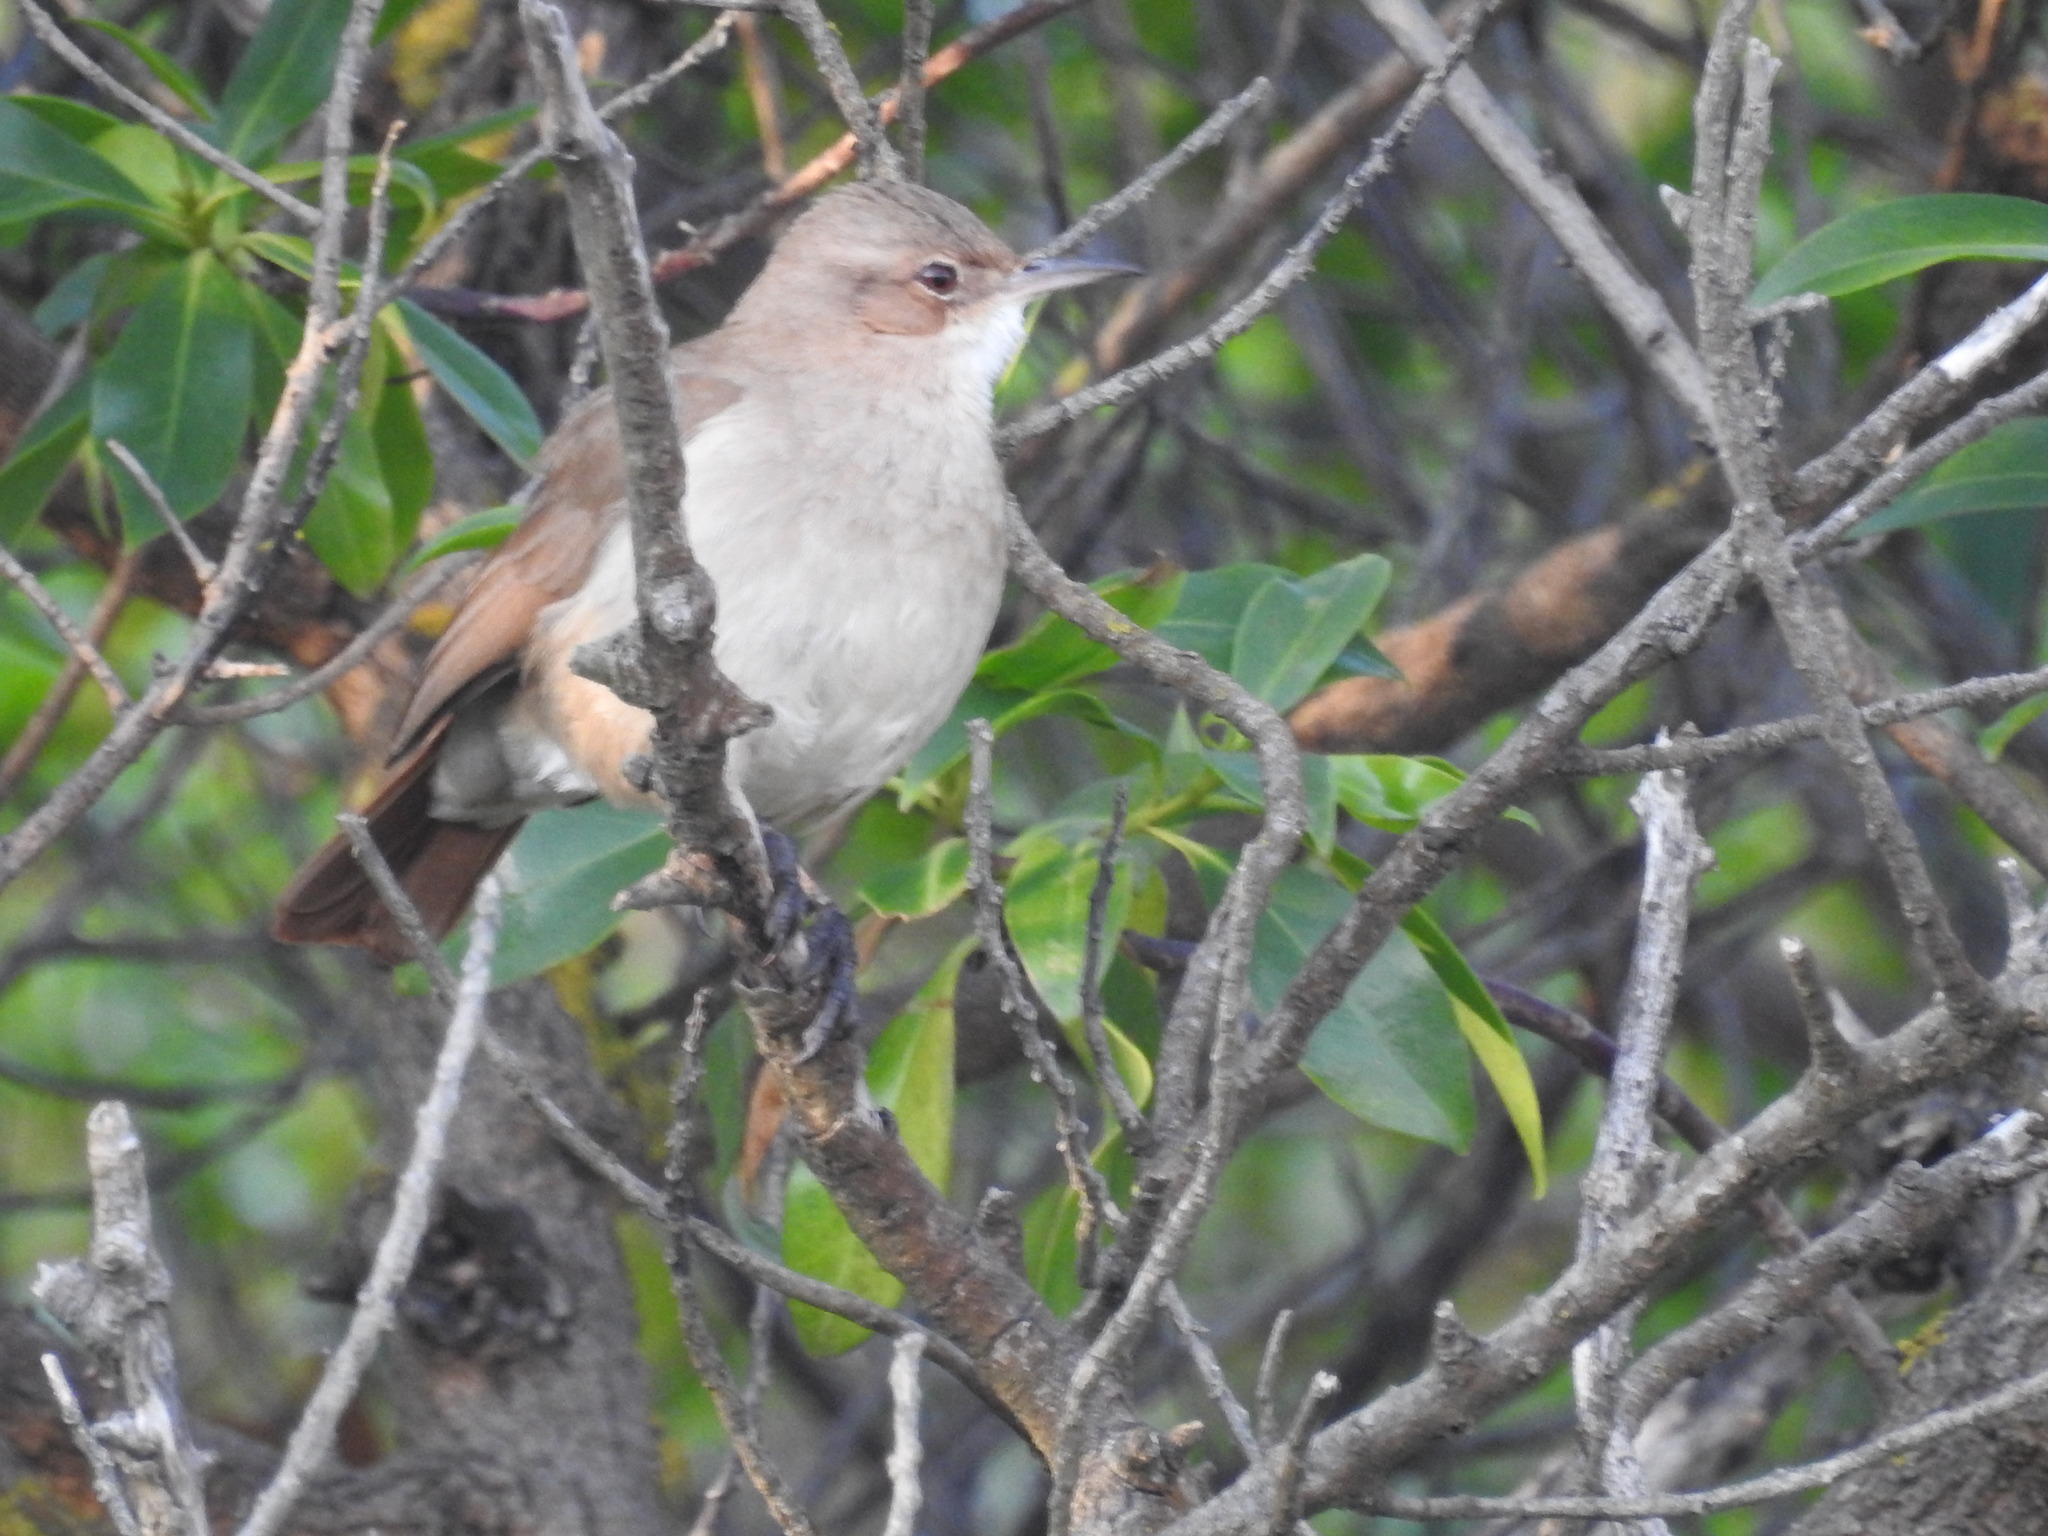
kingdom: Animalia
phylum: Chordata
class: Aves
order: Passeriformes
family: Furnariidae
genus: Furnarius
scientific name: Furnarius rufus
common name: Rufous hornero
